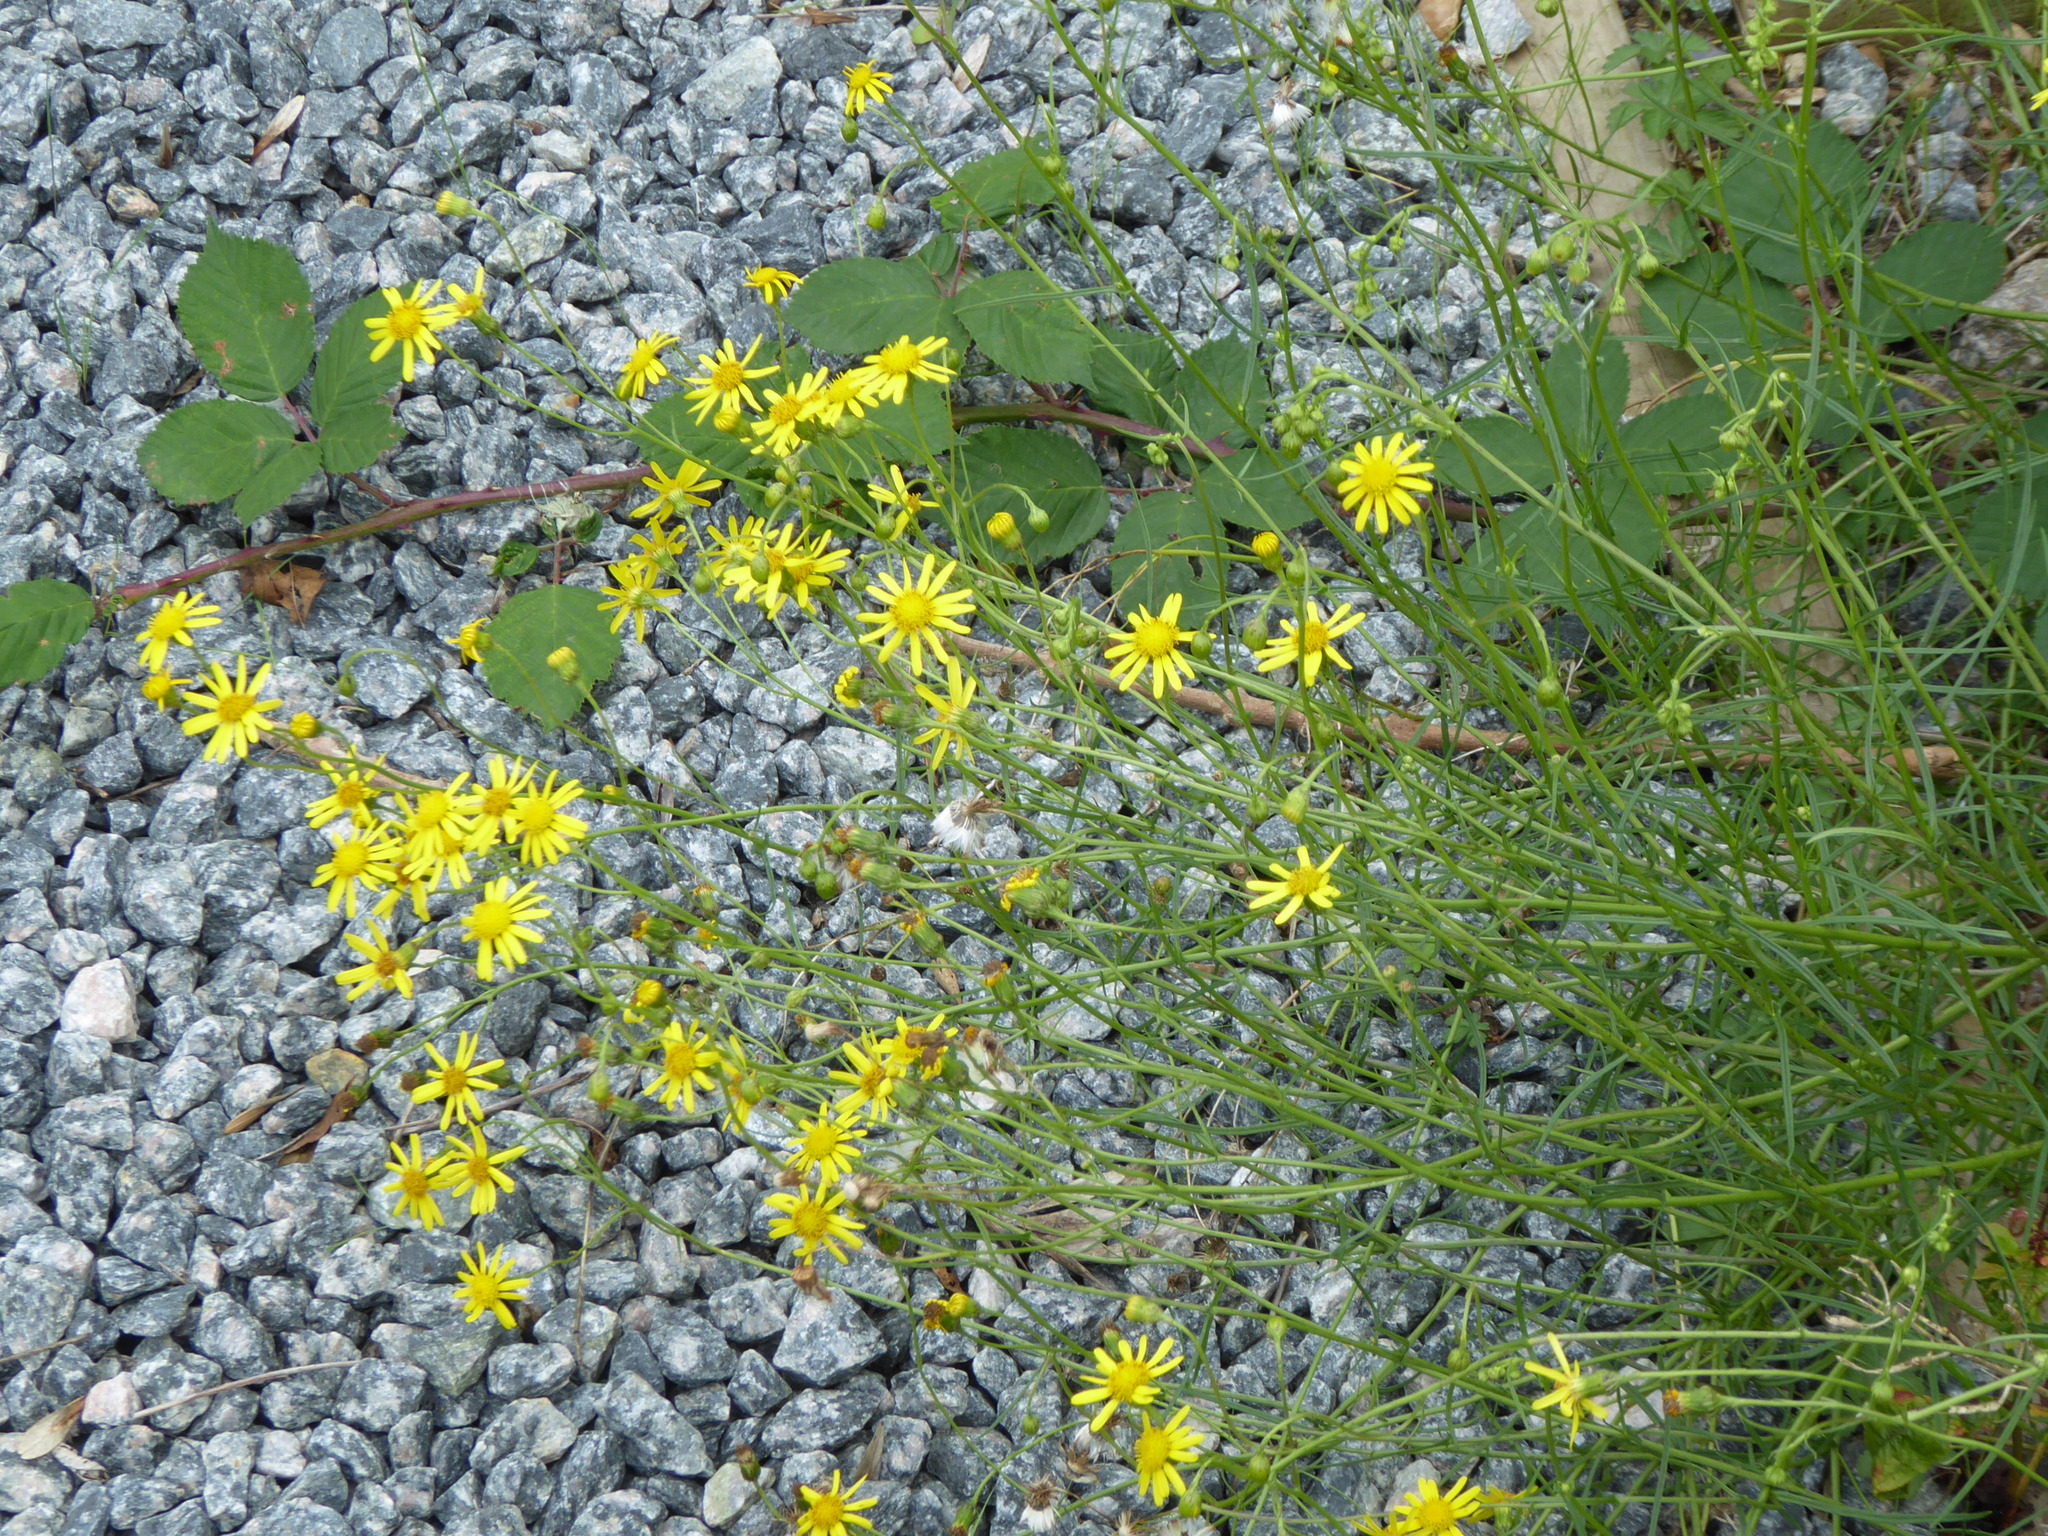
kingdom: Plantae
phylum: Tracheophyta
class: Magnoliopsida
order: Asterales
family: Asteraceae
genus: Senecio
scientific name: Senecio inaequidens
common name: Narrow-leaved ragwort
